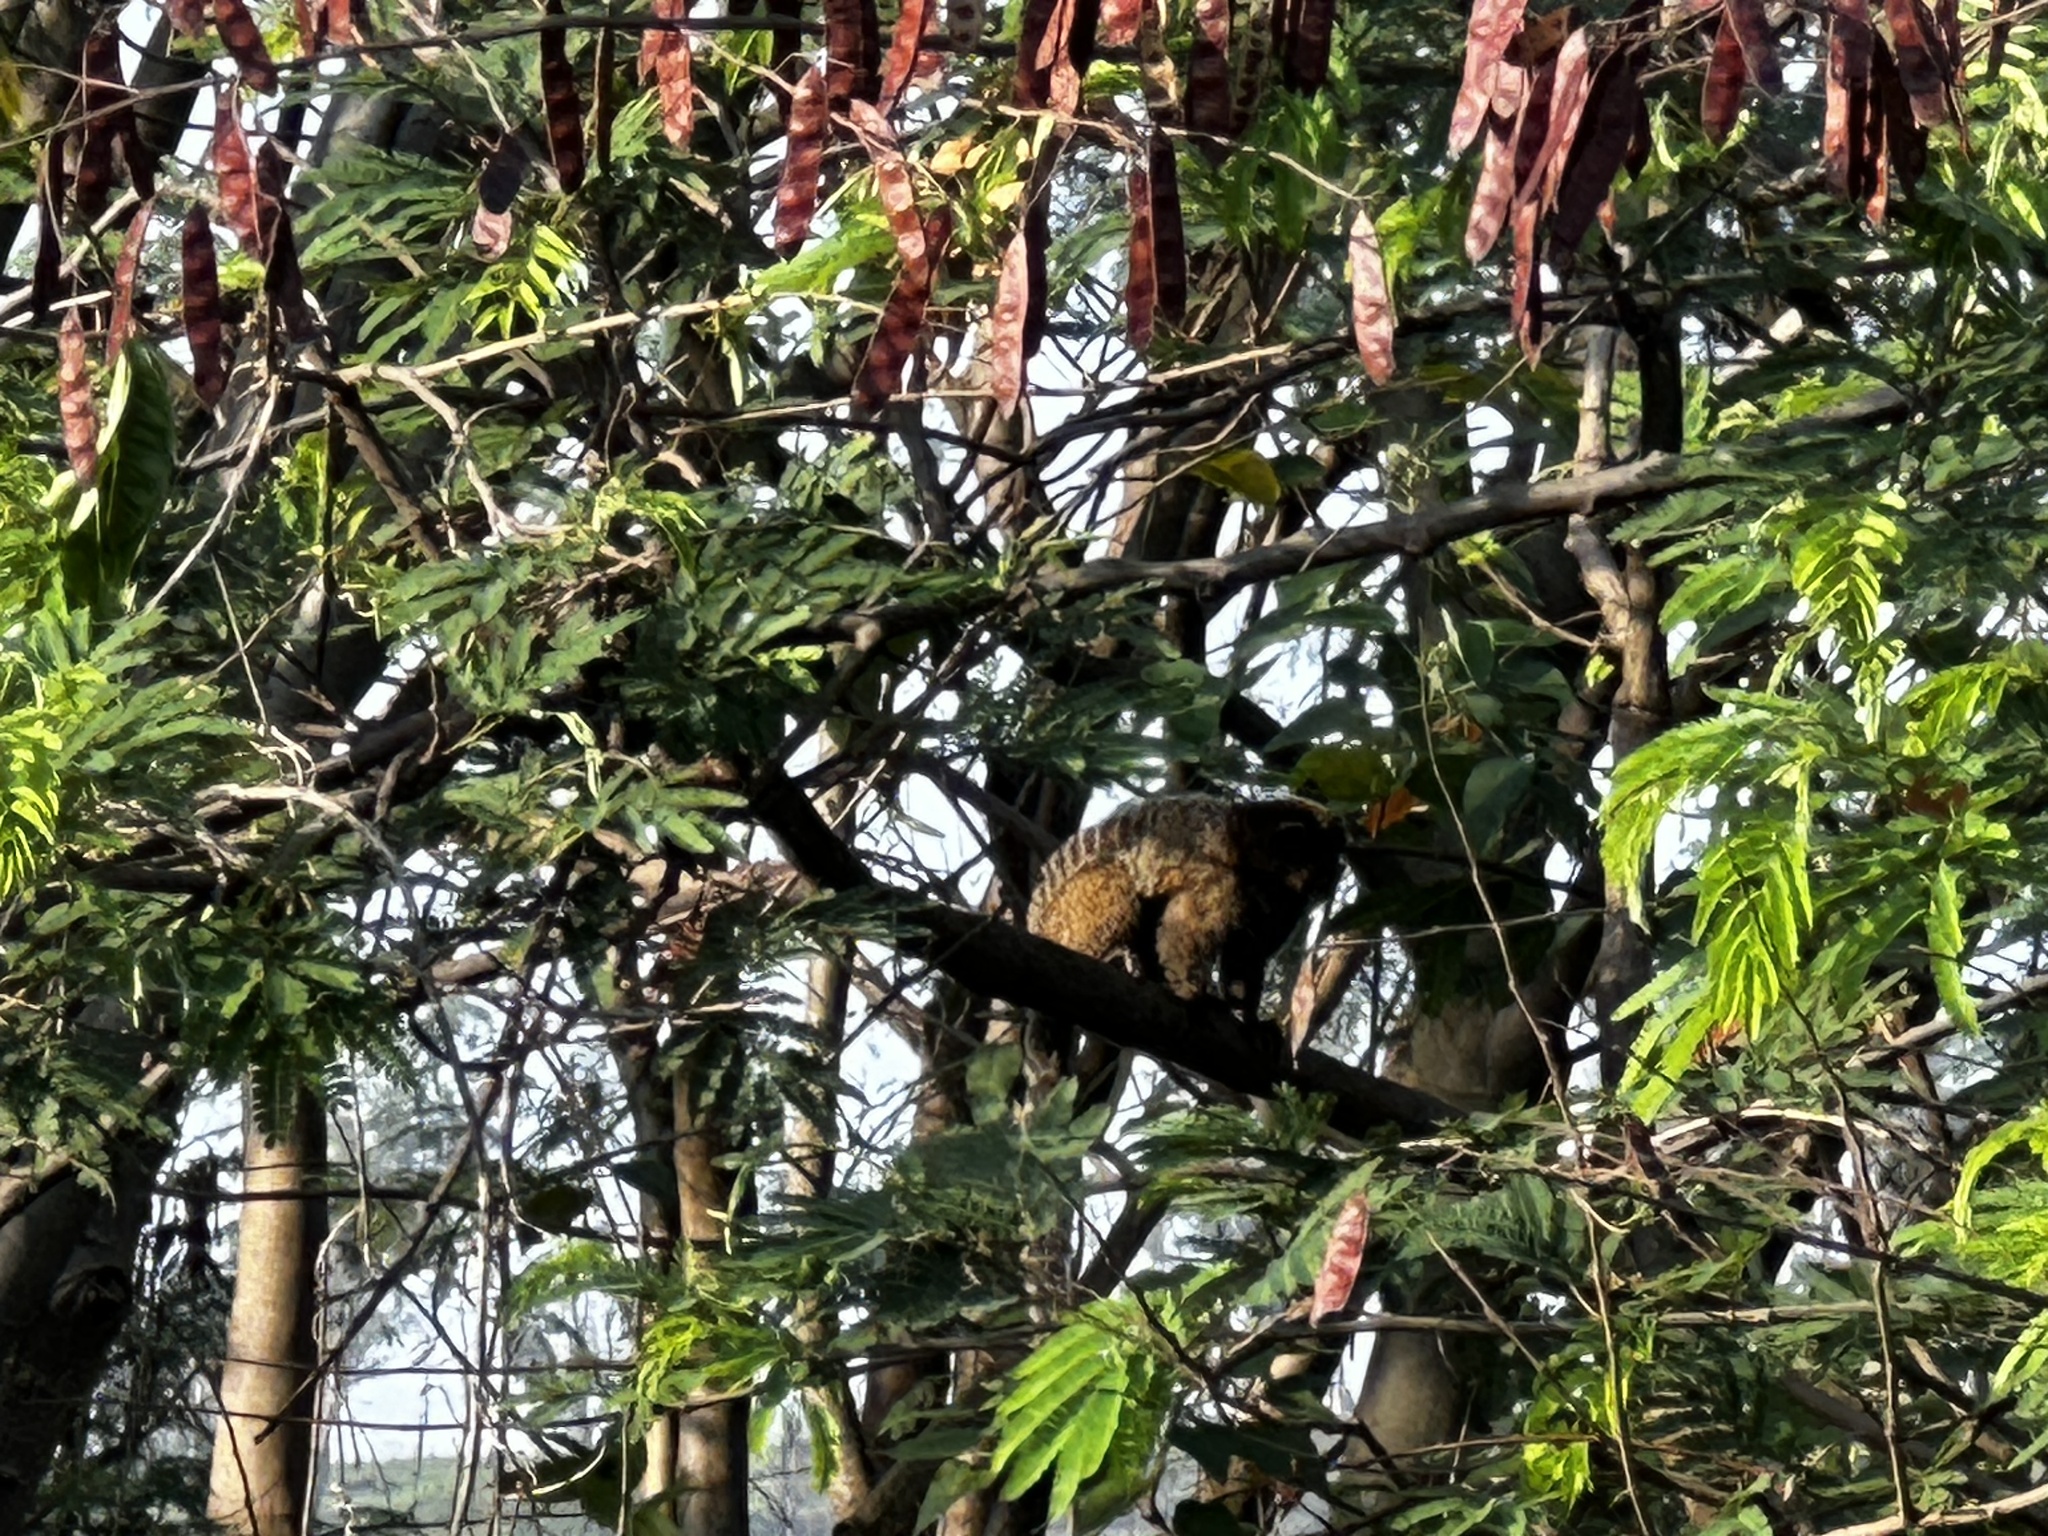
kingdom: Animalia
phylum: Chordata
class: Mammalia
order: Primates
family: Callitrichidae
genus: Callithrix
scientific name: Callithrix penicillata
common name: Black-tufted marmoset
